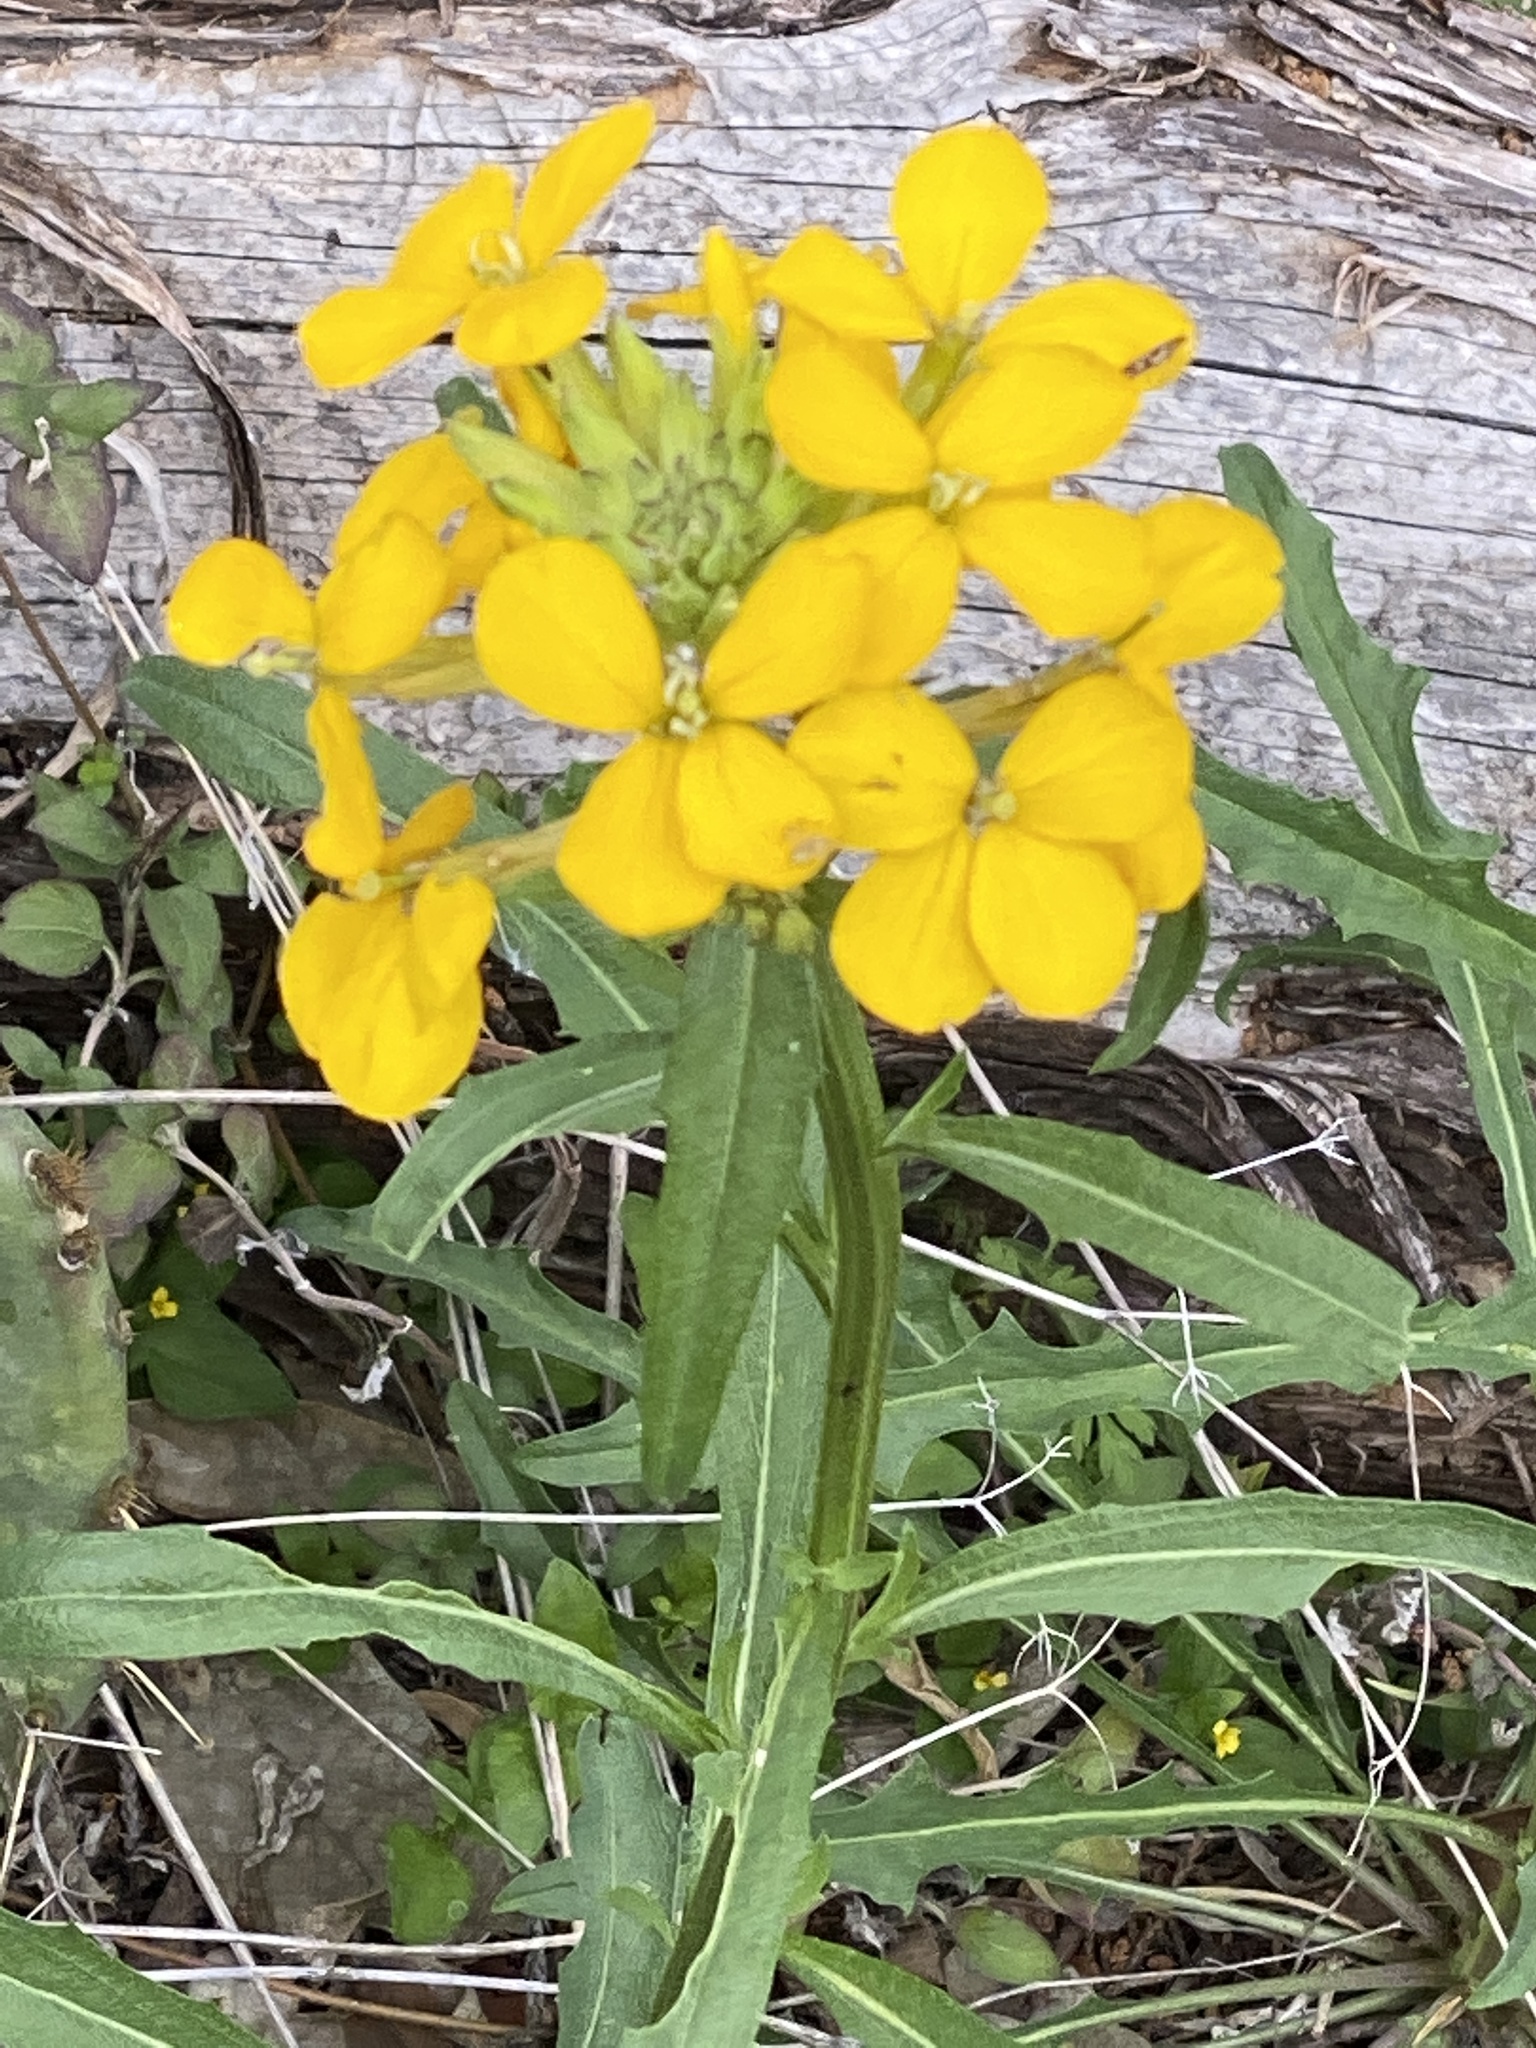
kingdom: Plantae
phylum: Tracheophyta
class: Magnoliopsida
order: Brassicales
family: Brassicaceae
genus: Erysimum
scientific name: Erysimum capitatum
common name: Western wallflower
